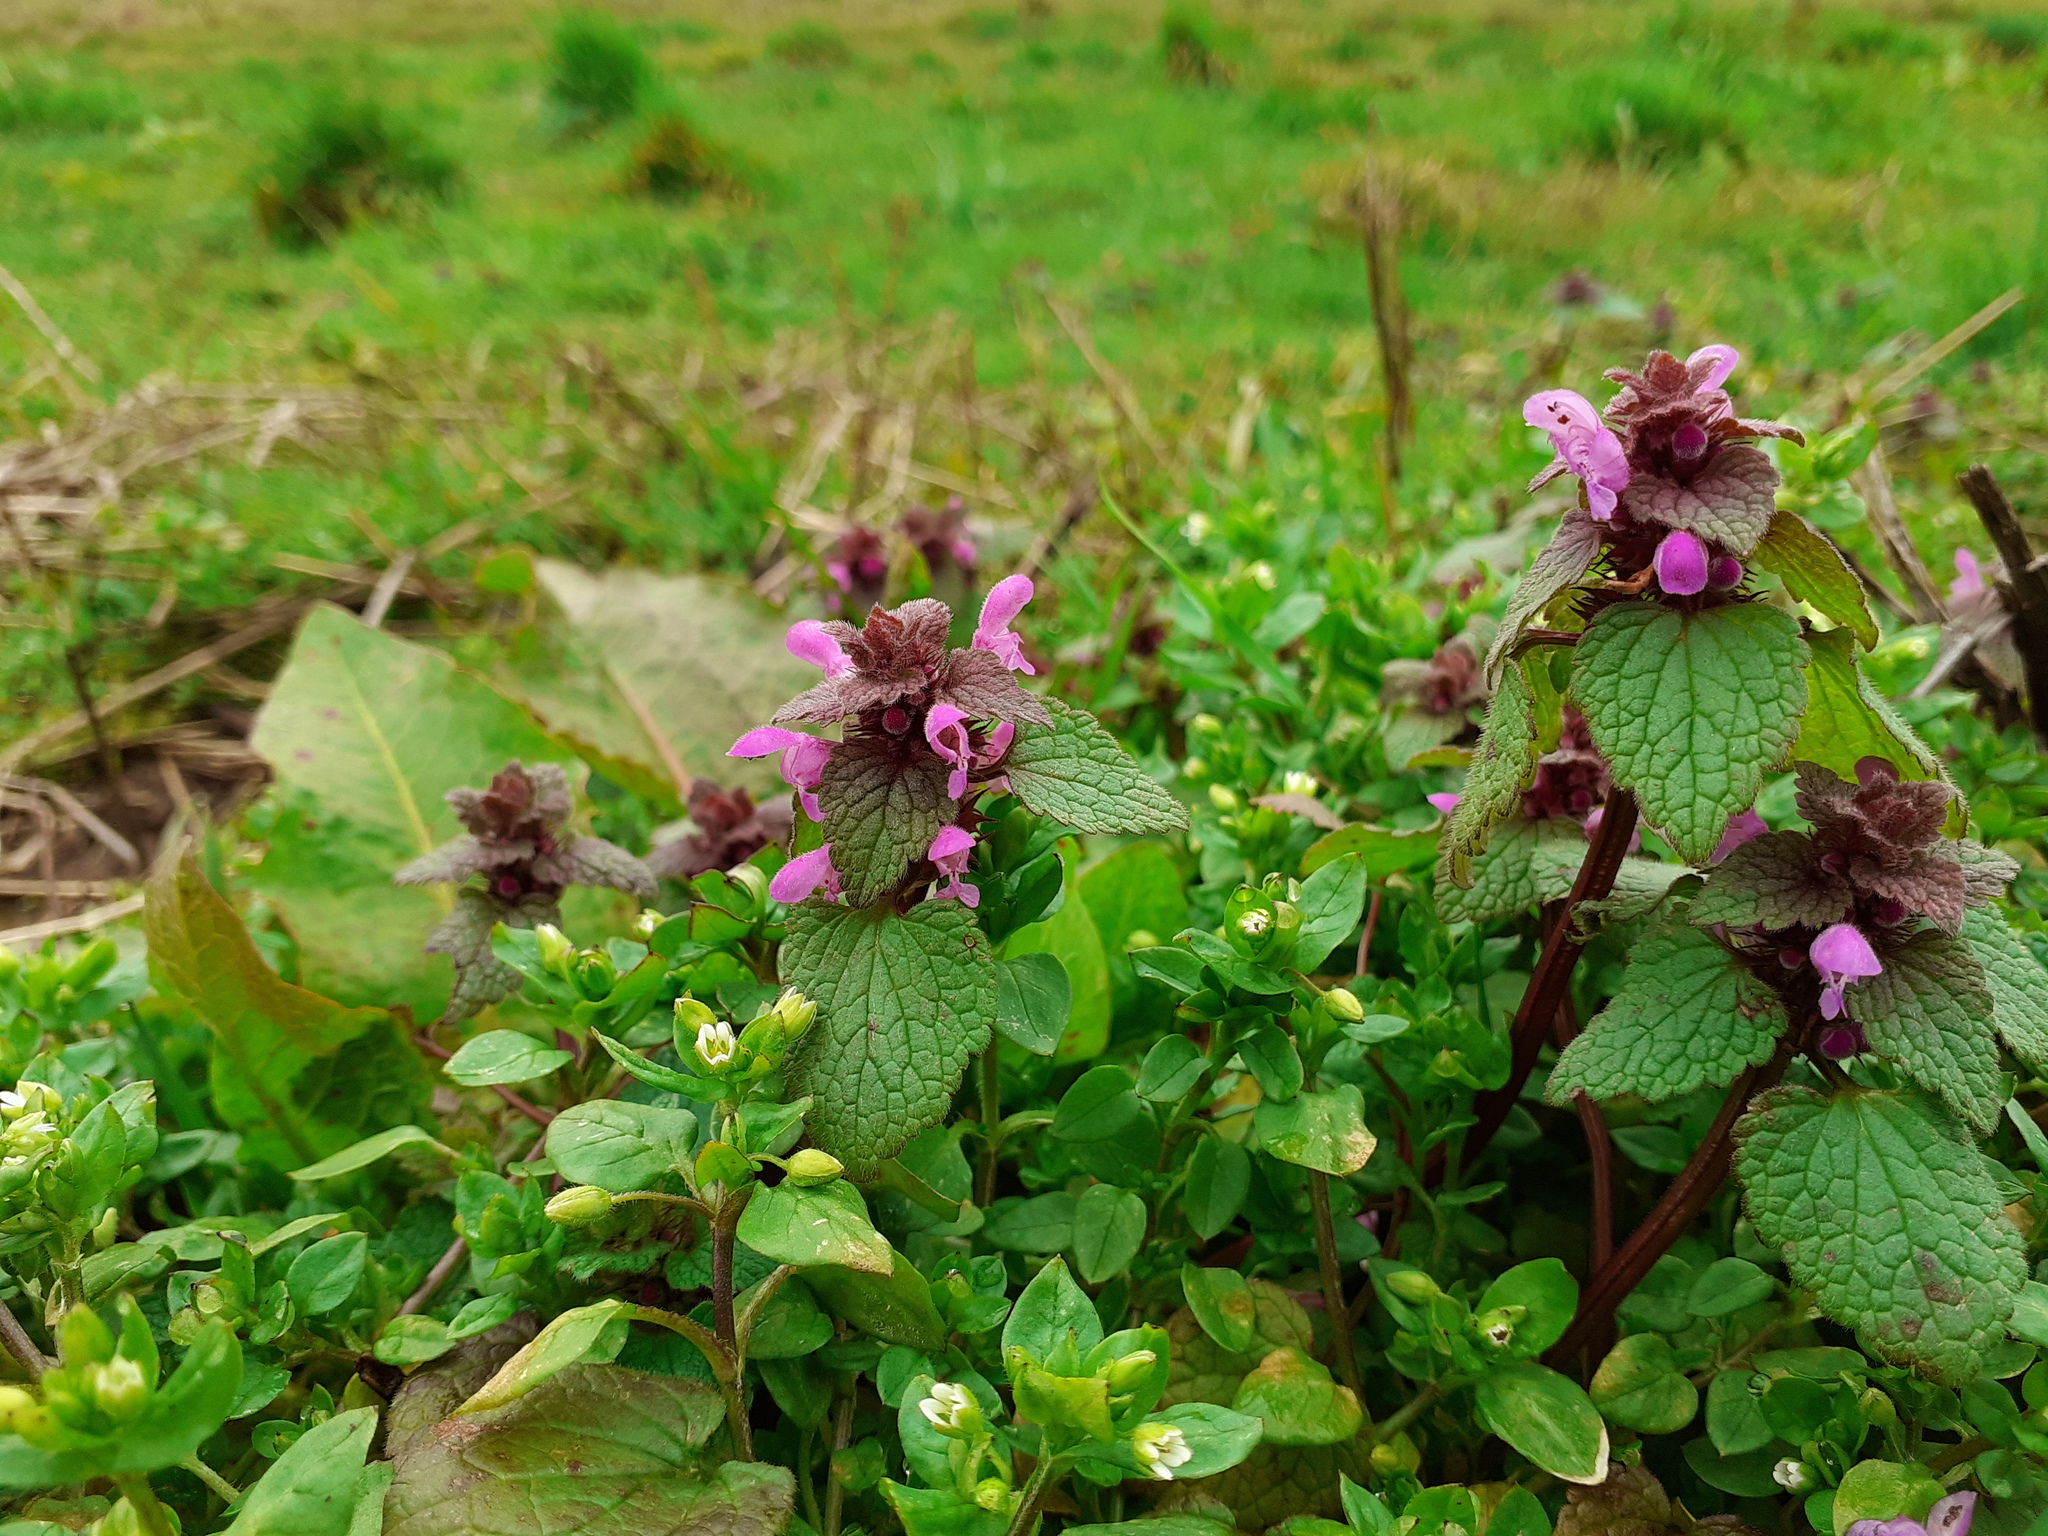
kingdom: Plantae
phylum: Tracheophyta
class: Magnoliopsida
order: Lamiales
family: Lamiaceae
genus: Lamium
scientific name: Lamium purpureum
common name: Red dead-nettle
